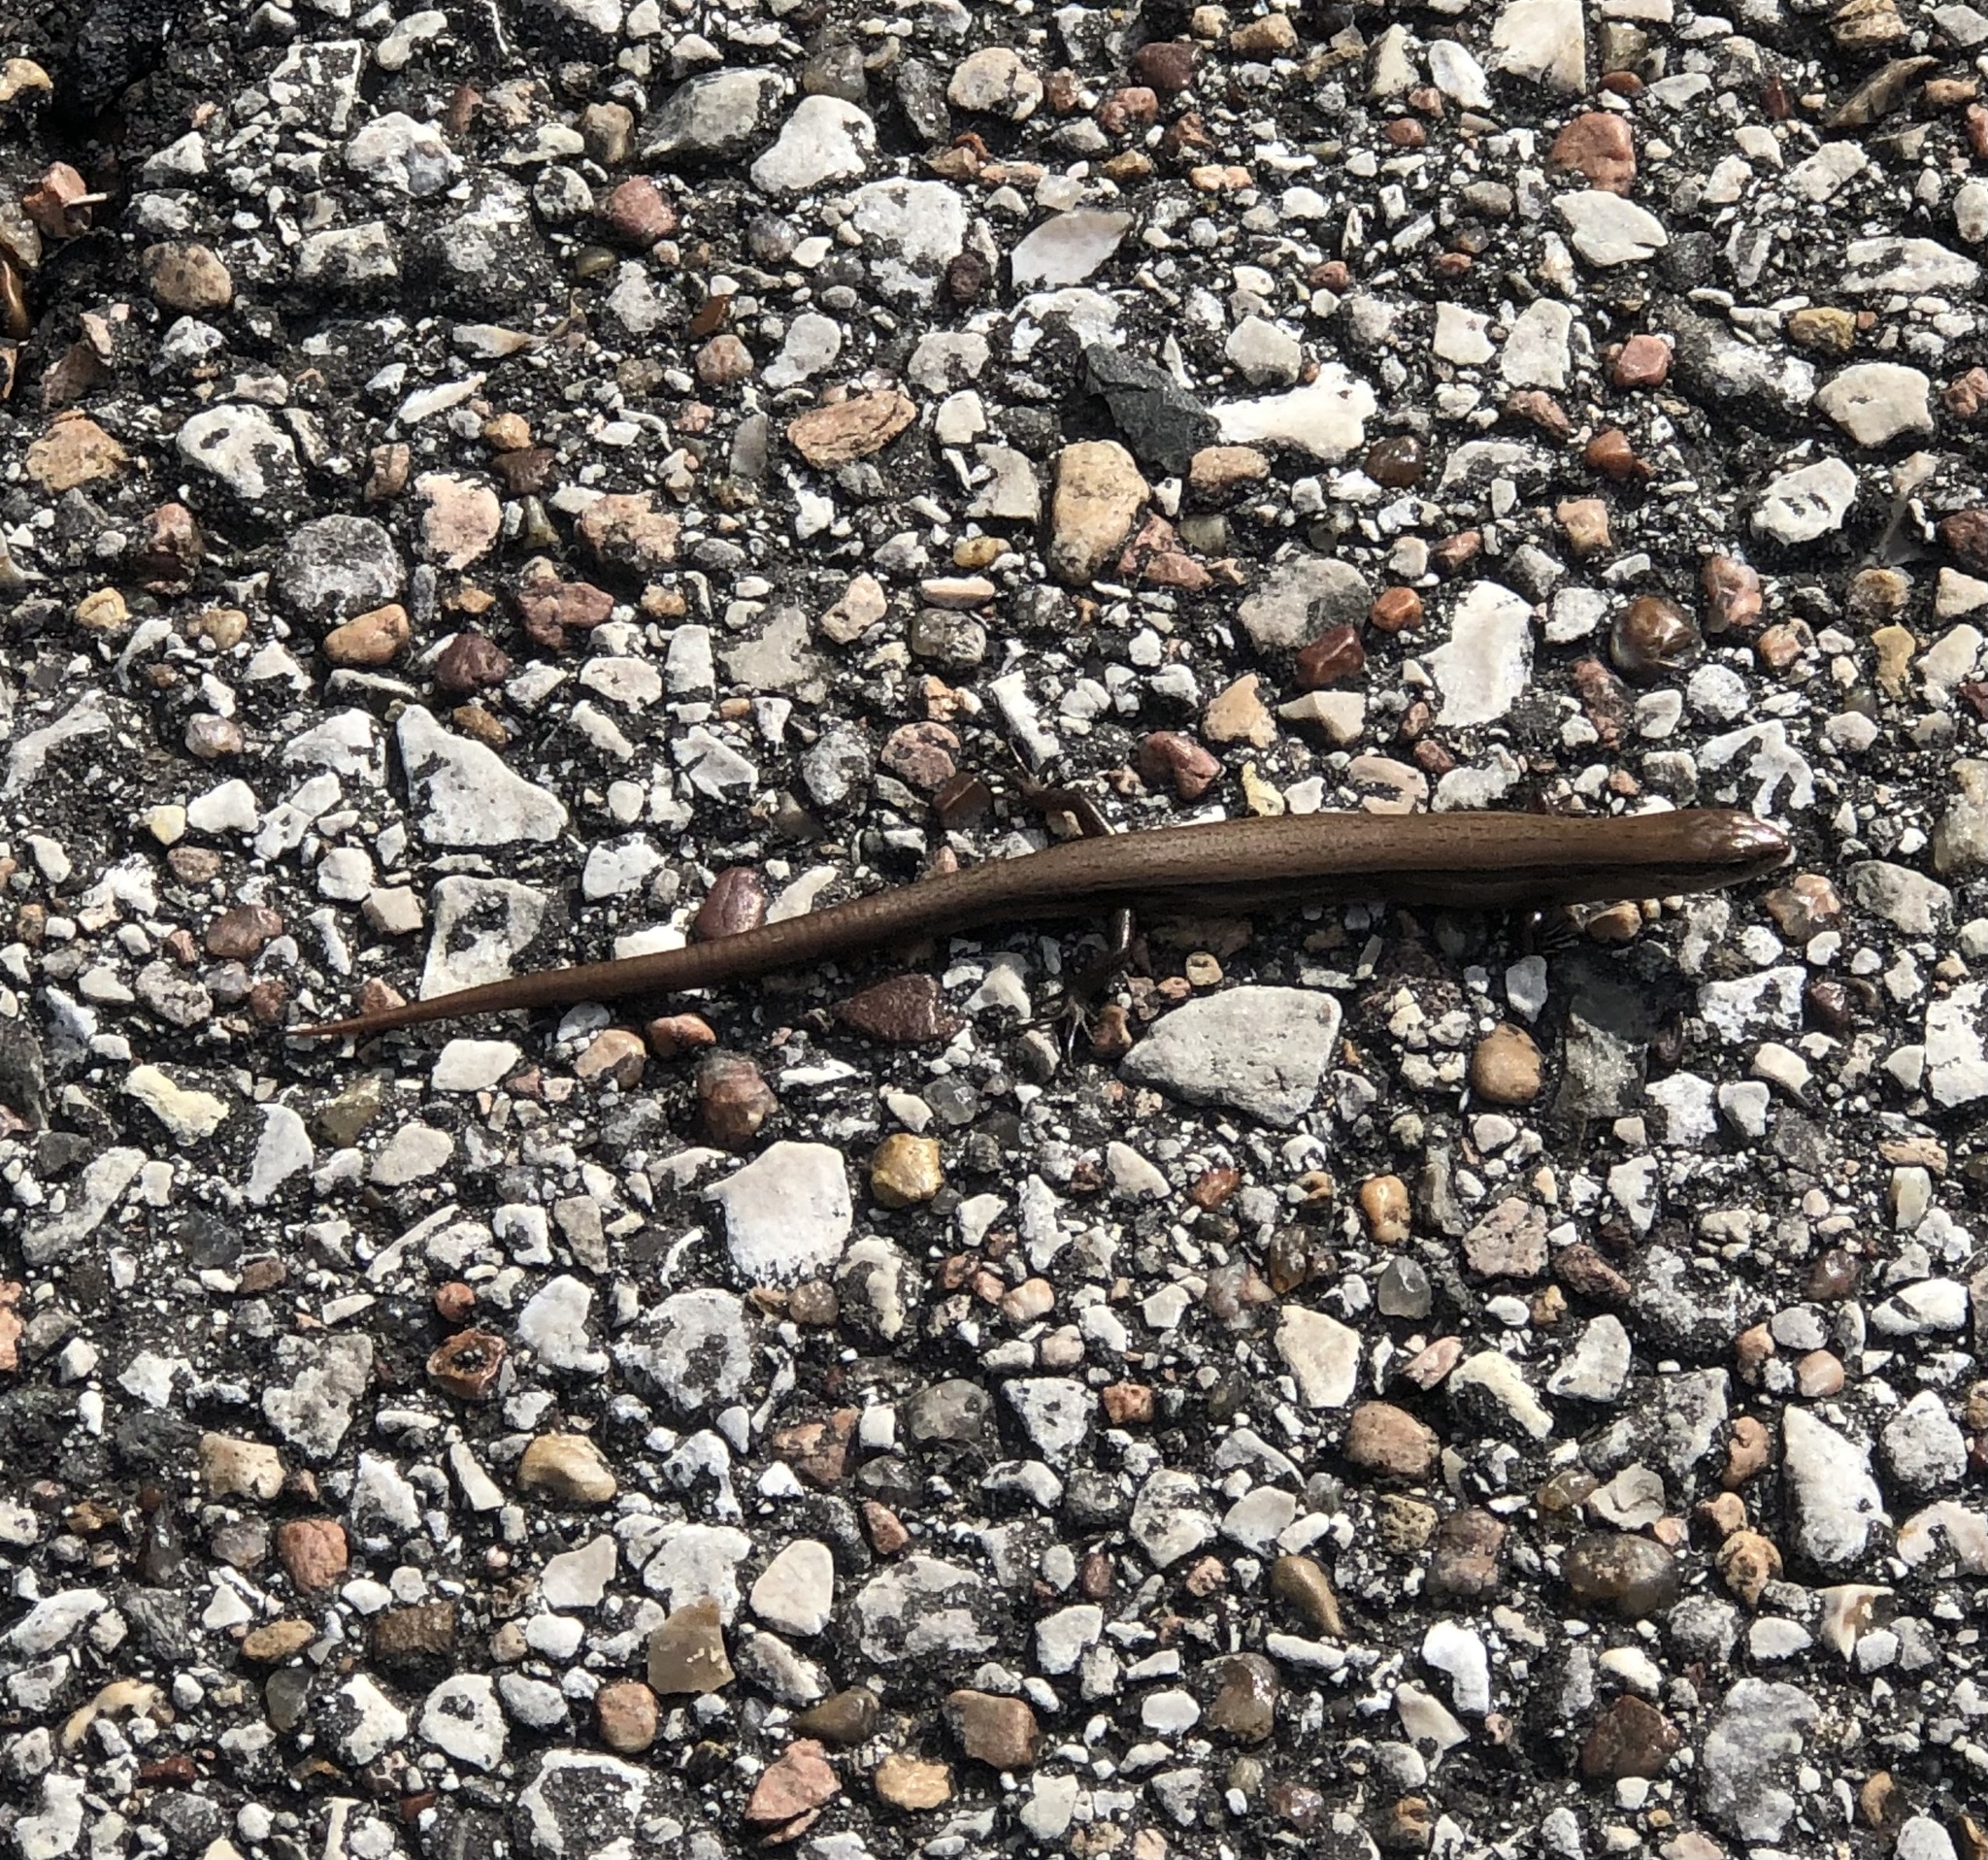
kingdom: Animalia
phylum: Chordata
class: Squamata
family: Scincidae
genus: Scincella
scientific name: Scincella lateralis
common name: Ground skink
